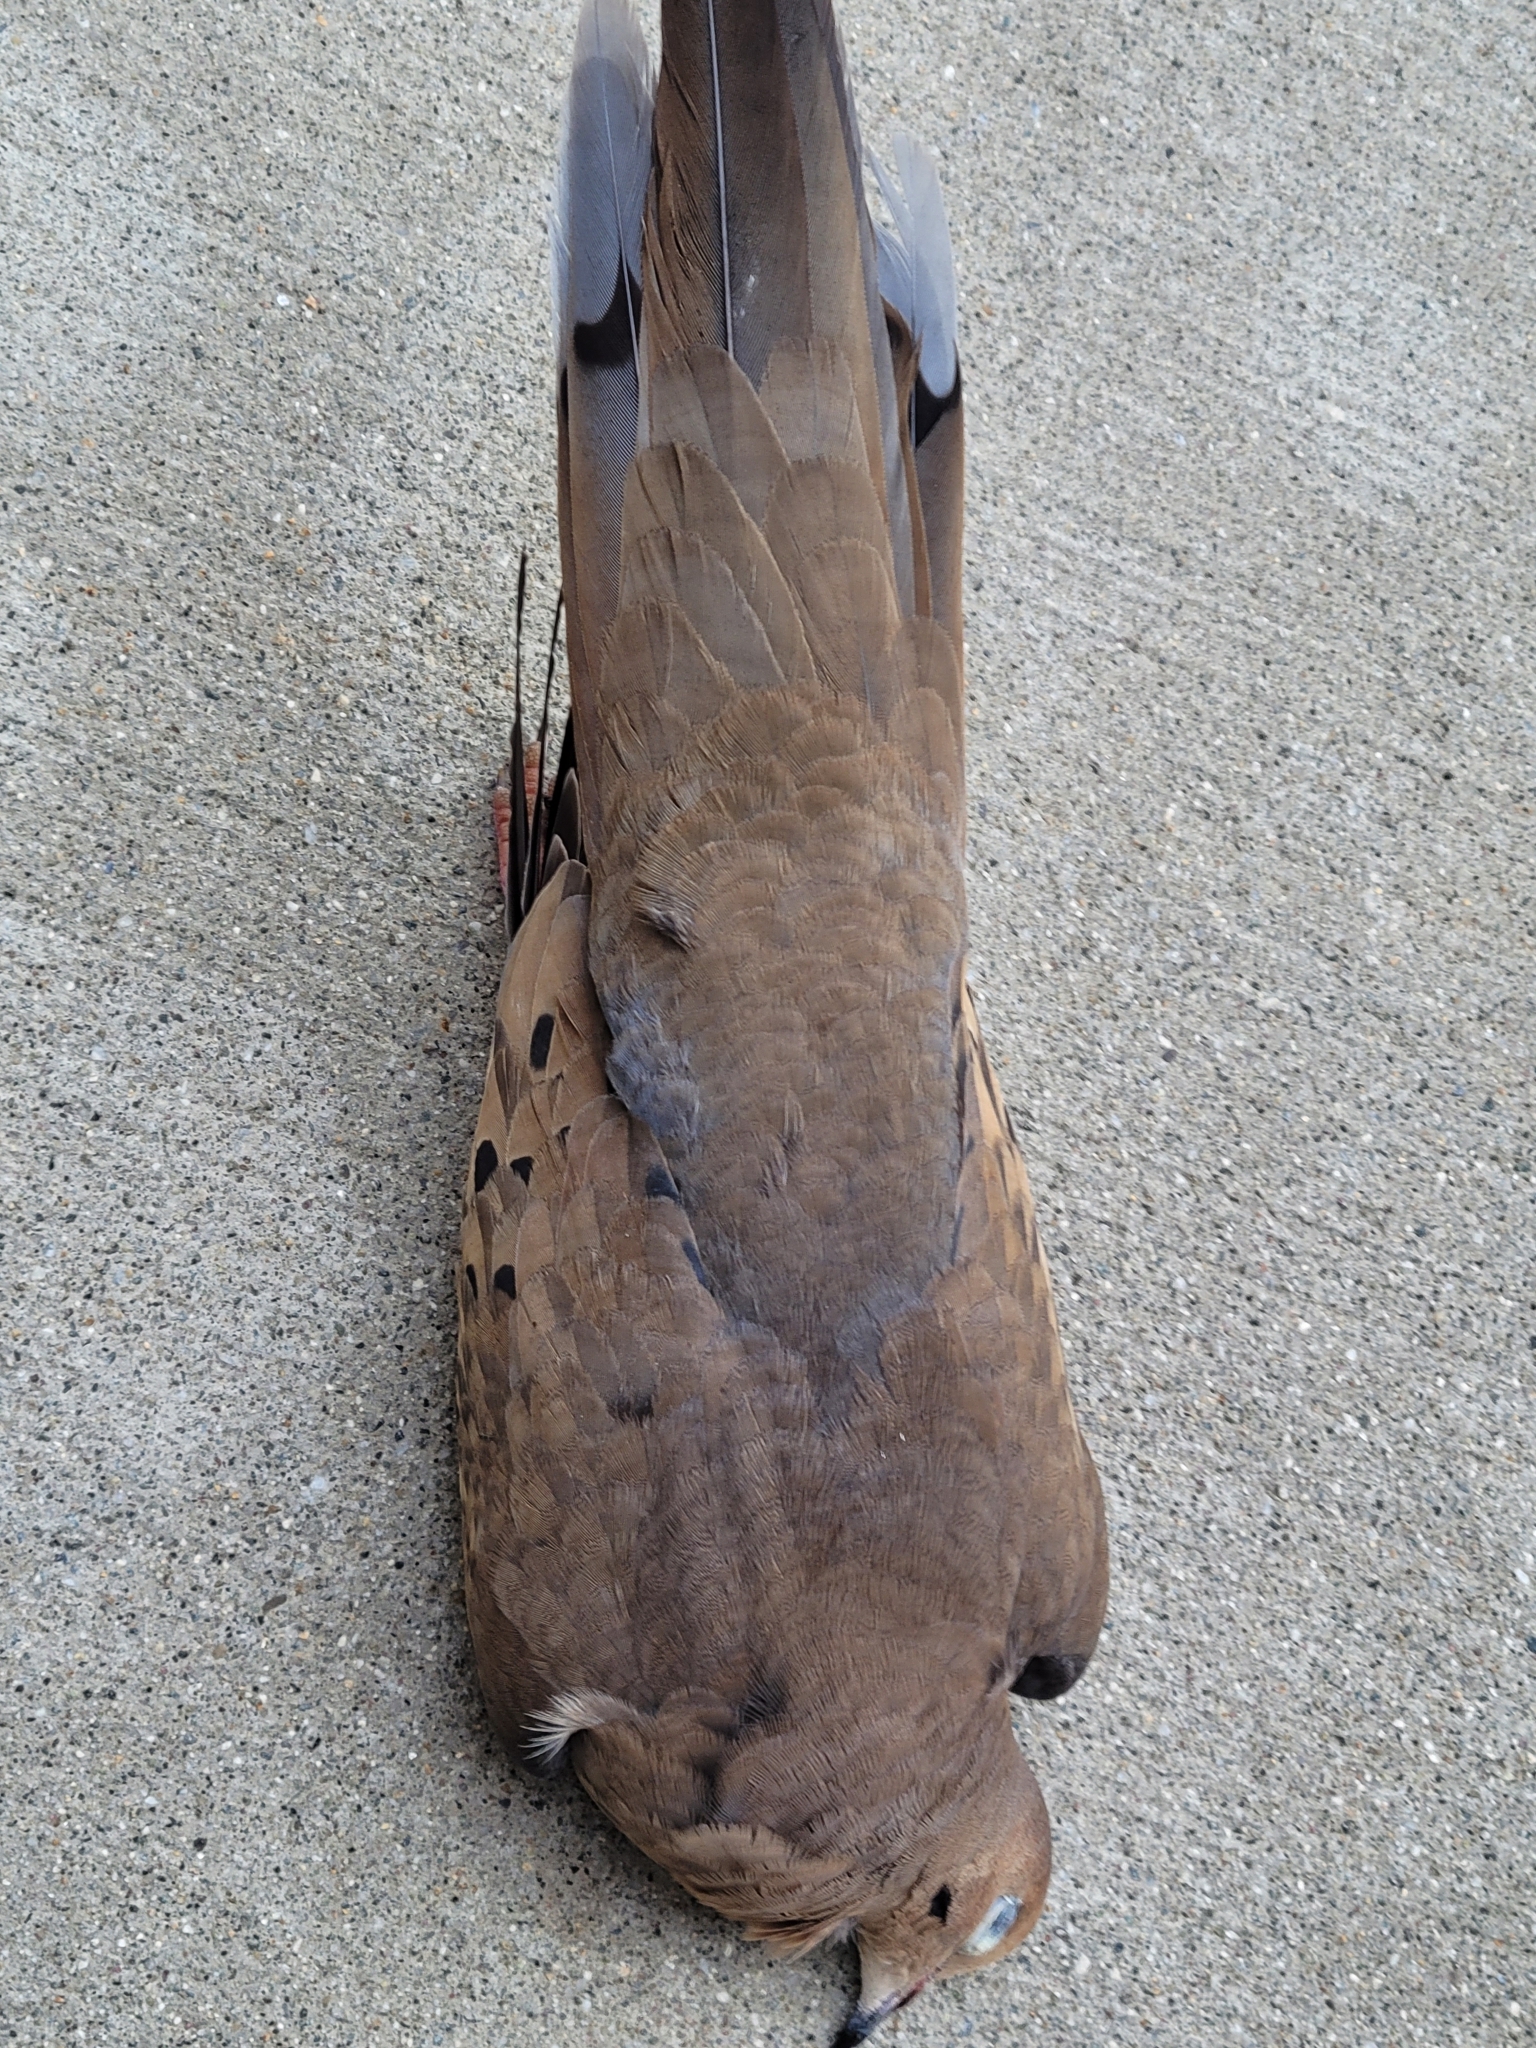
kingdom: Animalia
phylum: Chordata
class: Aves
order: Columbiformes
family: Columbidae
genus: Zenaida
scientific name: Zenaida macroura
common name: Mourning dove
